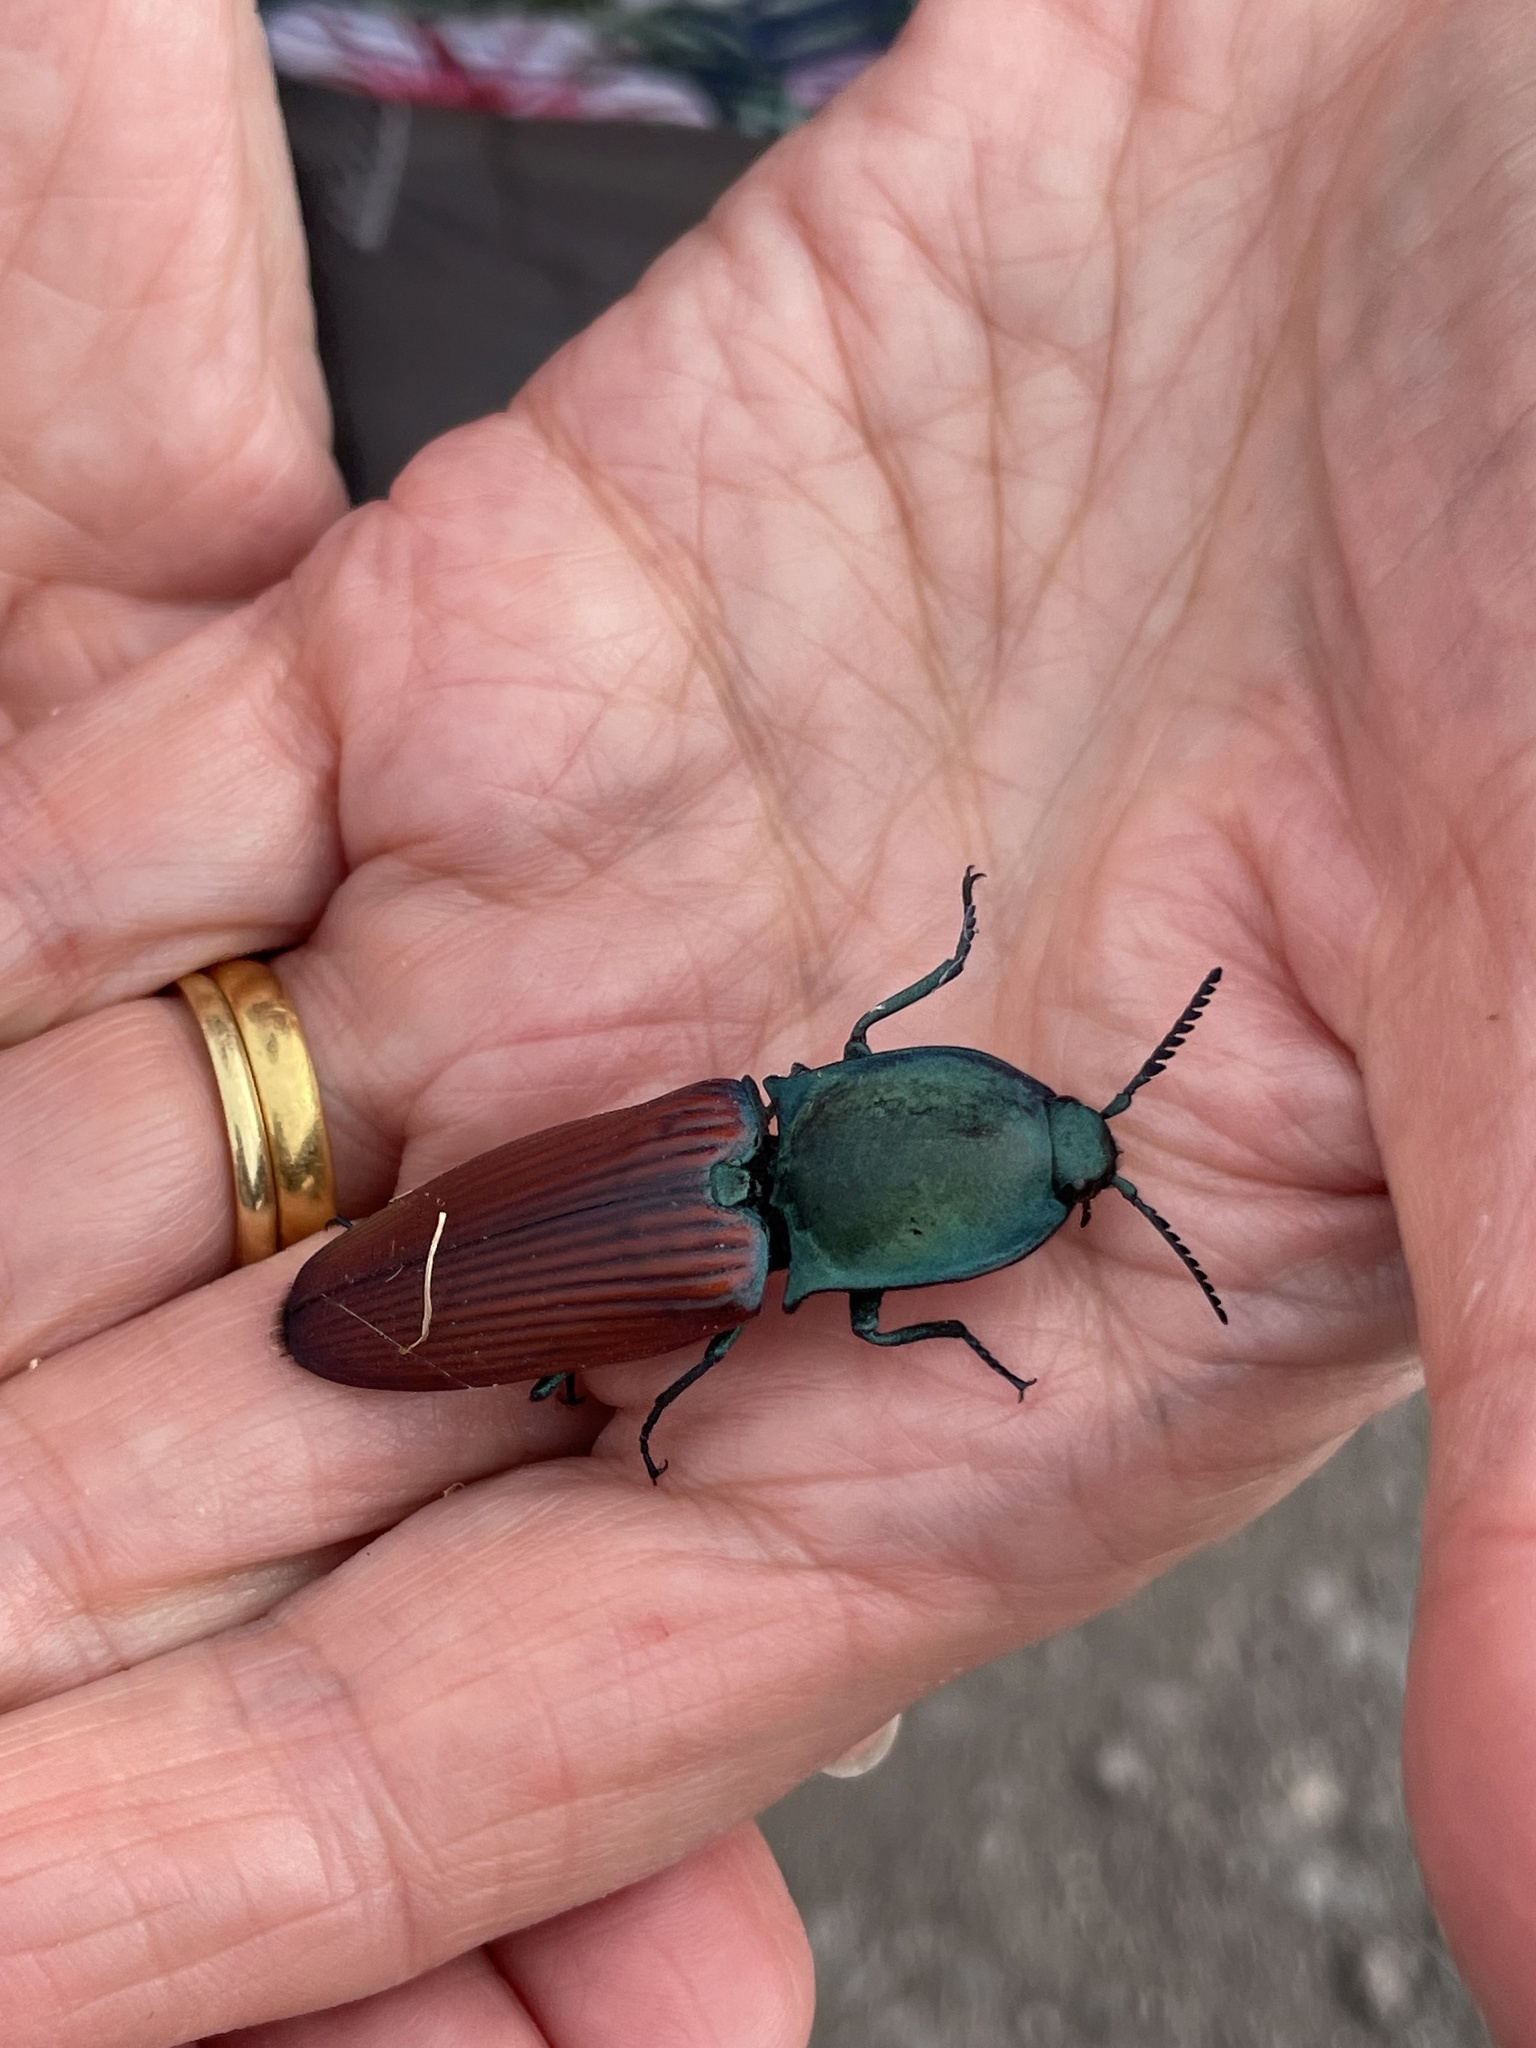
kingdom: Animalia
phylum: Arthropoda
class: Insecta
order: Coleoptera
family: Elateridae
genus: Chalcolepidius
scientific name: Chalcolepidius
